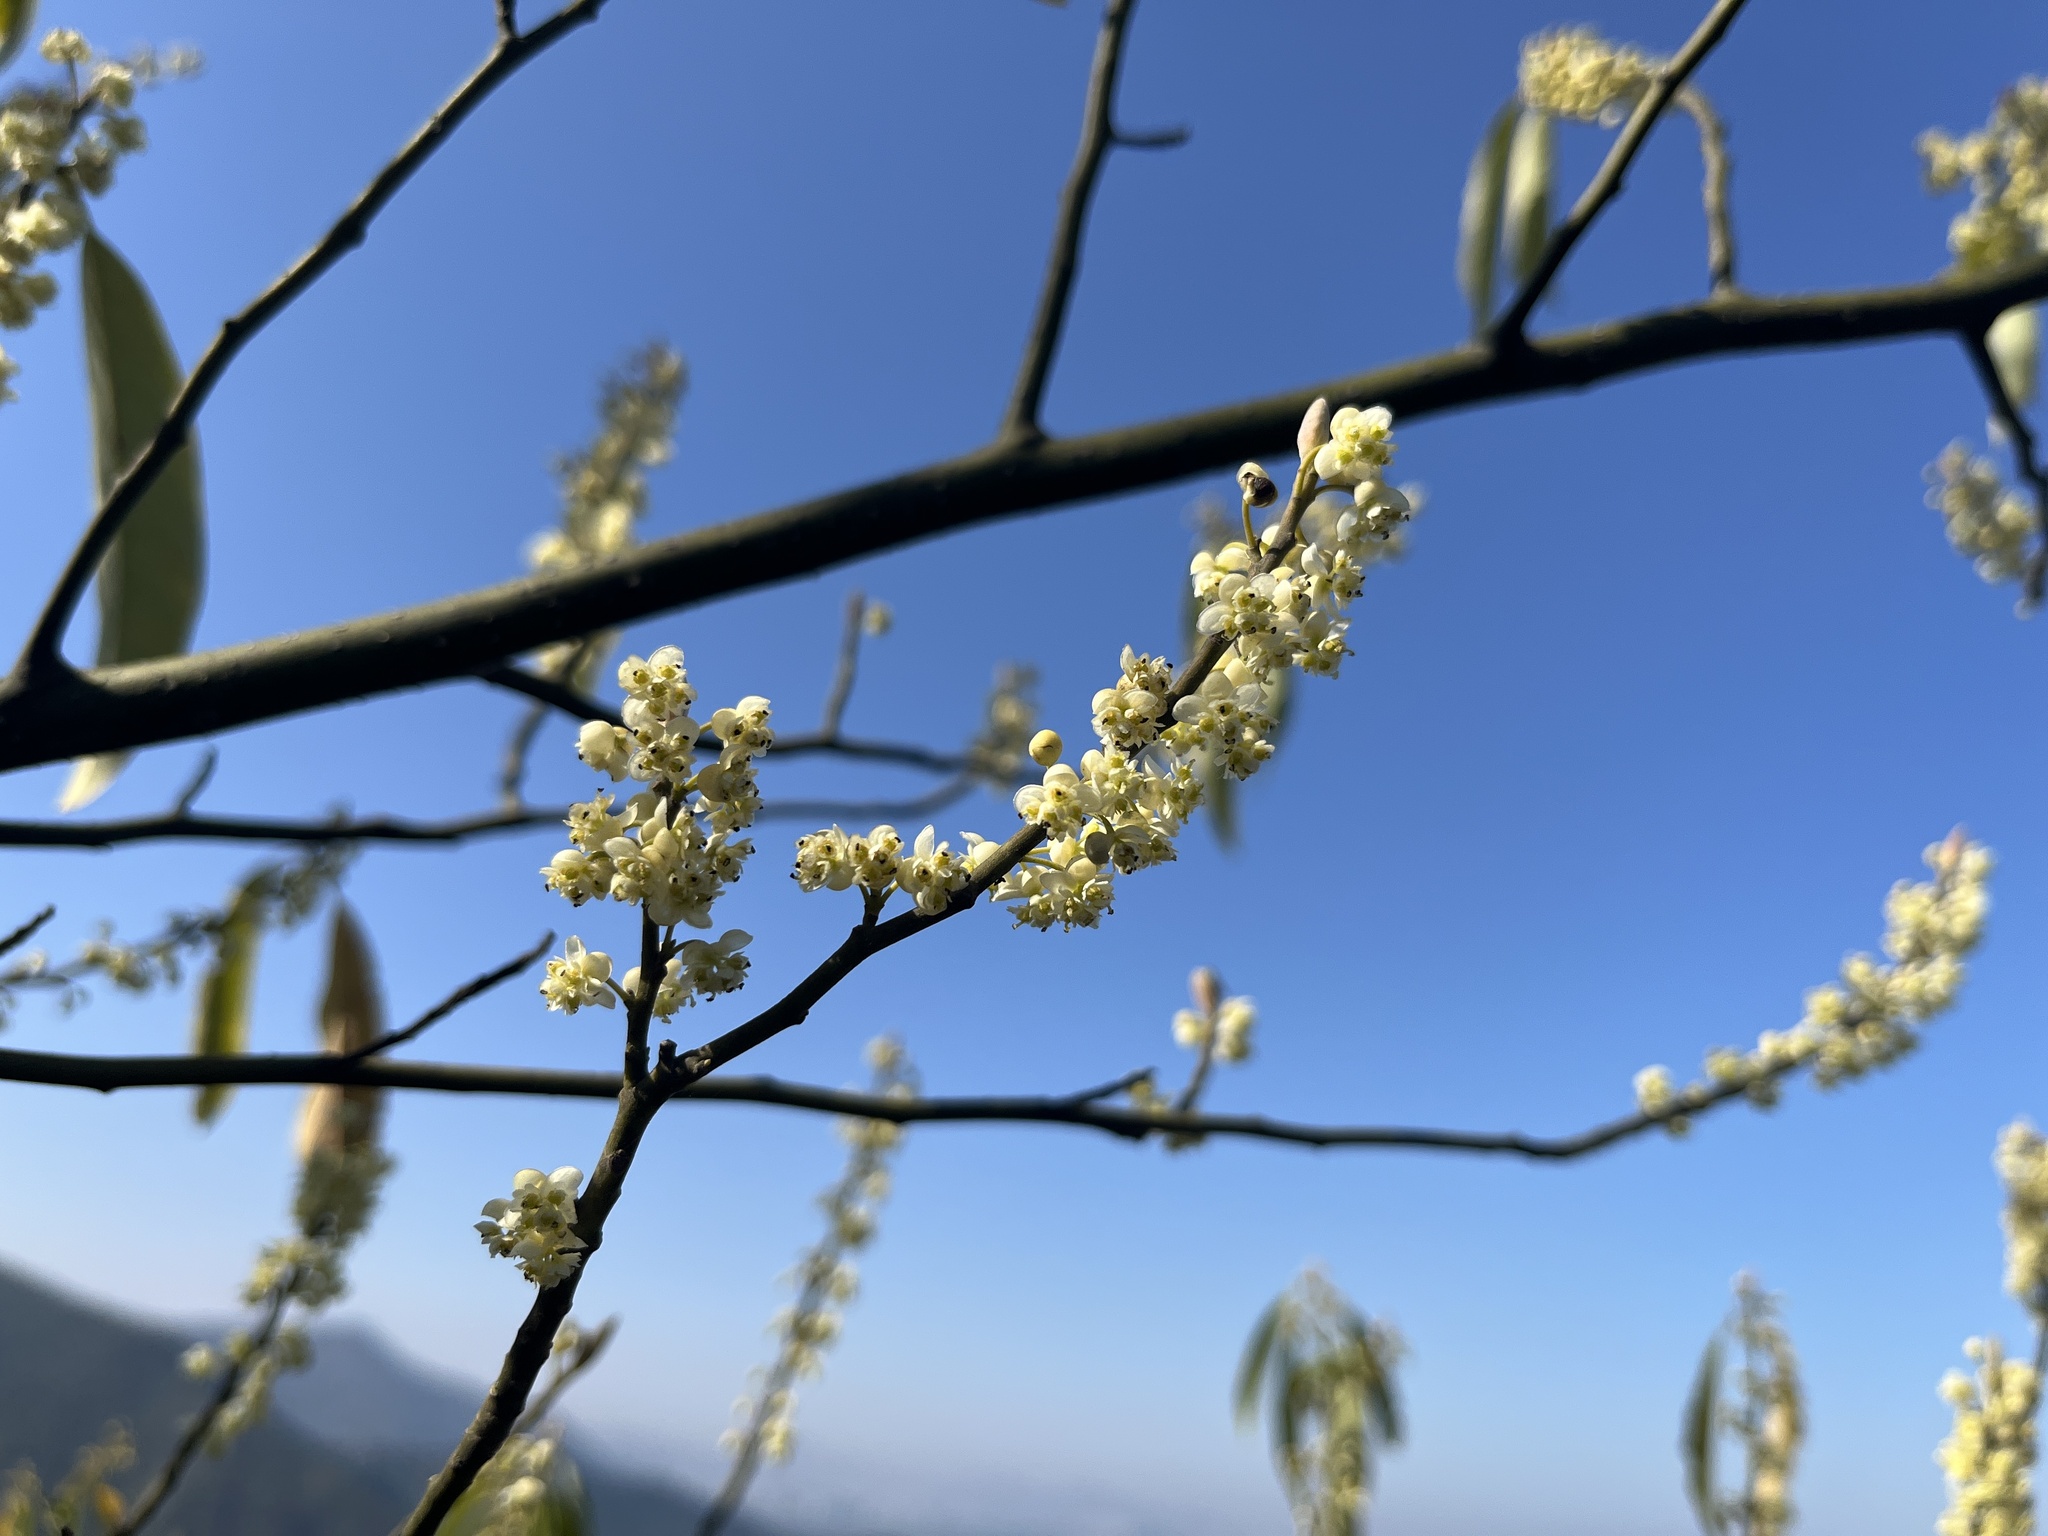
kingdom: Plantae
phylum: Tracheophyta
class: Magnoliopsida
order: Laurales
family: Lauraceae
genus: Litsea
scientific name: Litsea cubeba
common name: Mountain-pepper
